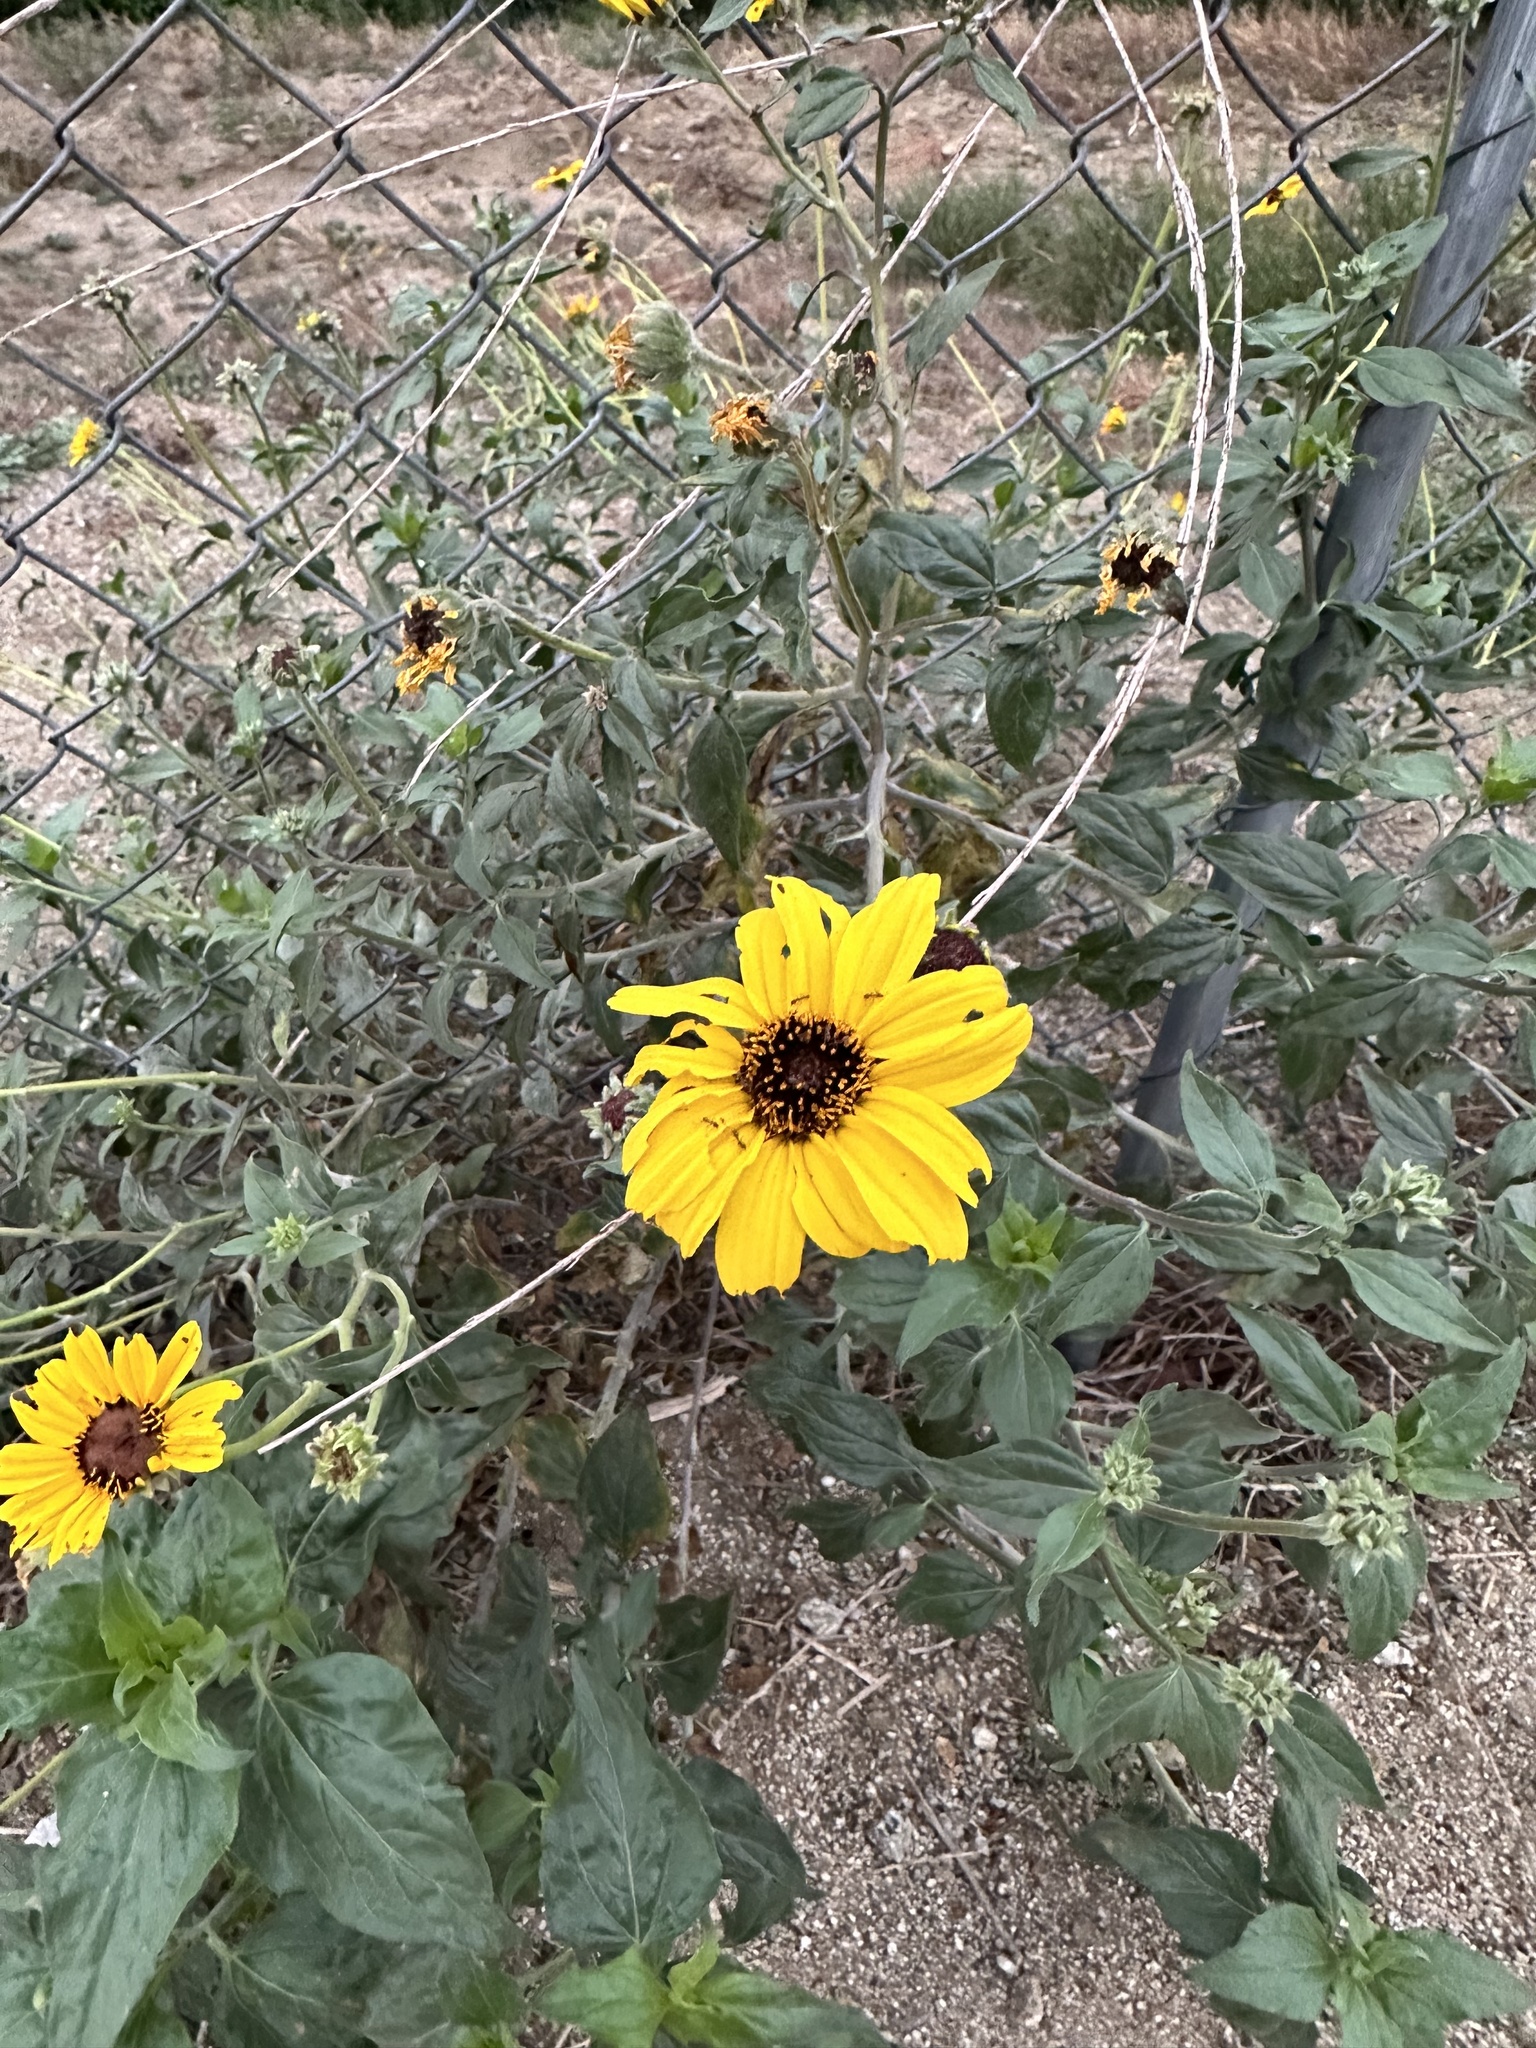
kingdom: Plantae
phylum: Tracheophyta
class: Magnoliopsida
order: Asterales
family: Asteraceae
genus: Encelia
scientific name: Encelia californica
